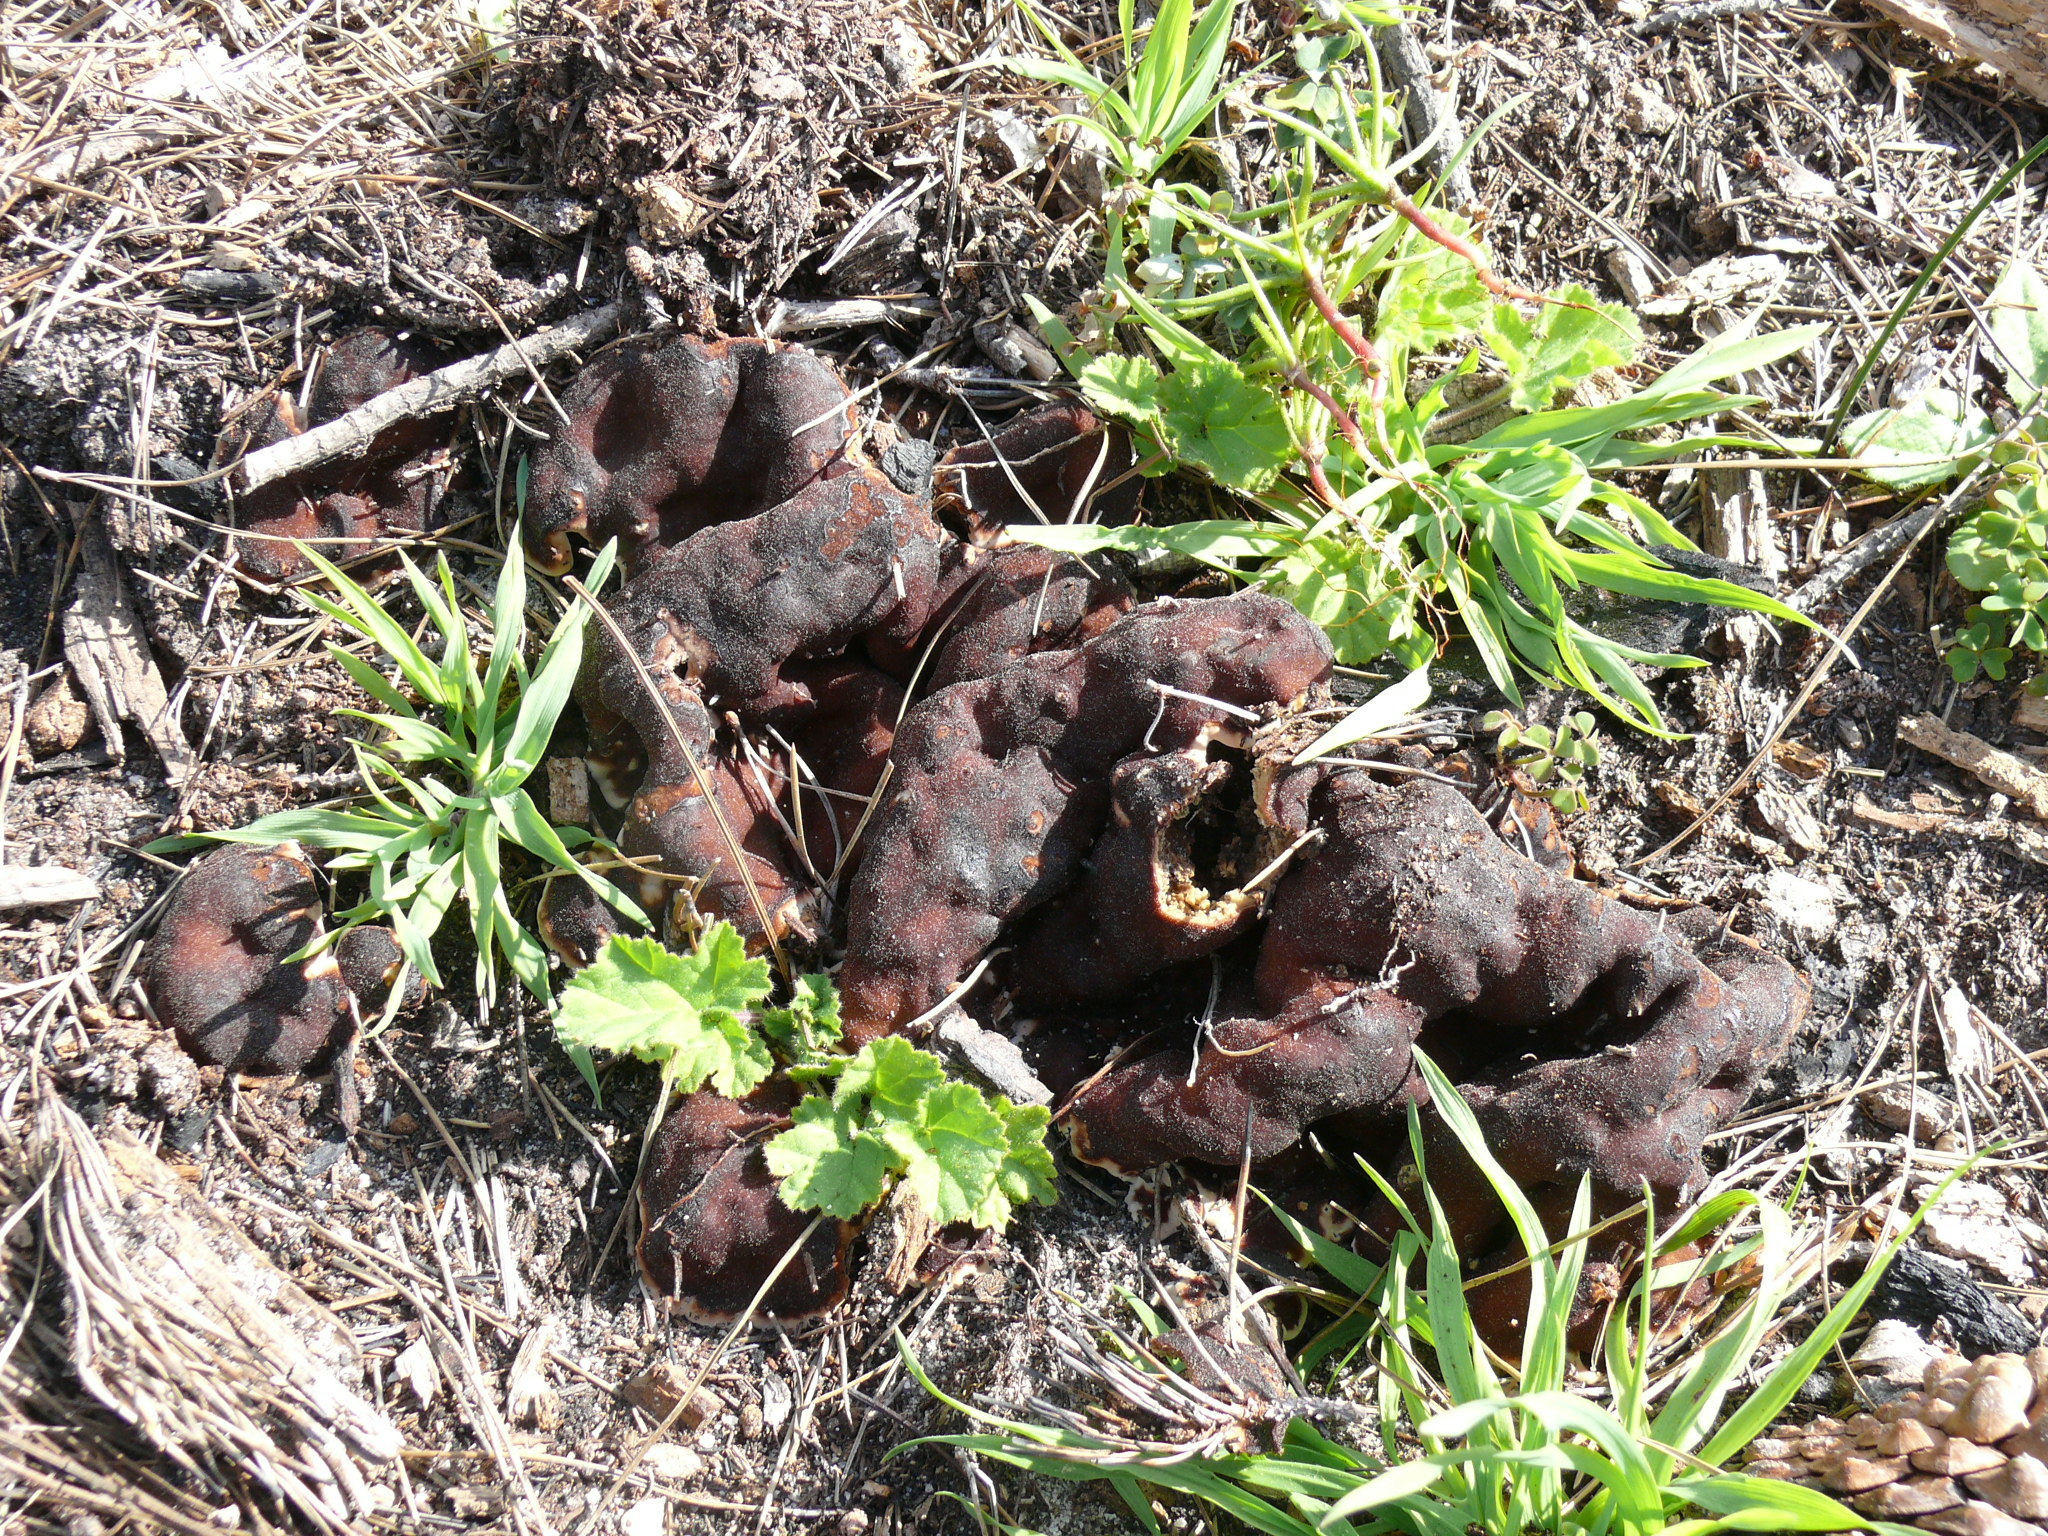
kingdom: Fungi
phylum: Ascomycota
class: Pezizomycetes
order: Pezizales
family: Rhizinaceae
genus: Rhizina
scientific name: Rhizina undulata
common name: Pine firefungus
